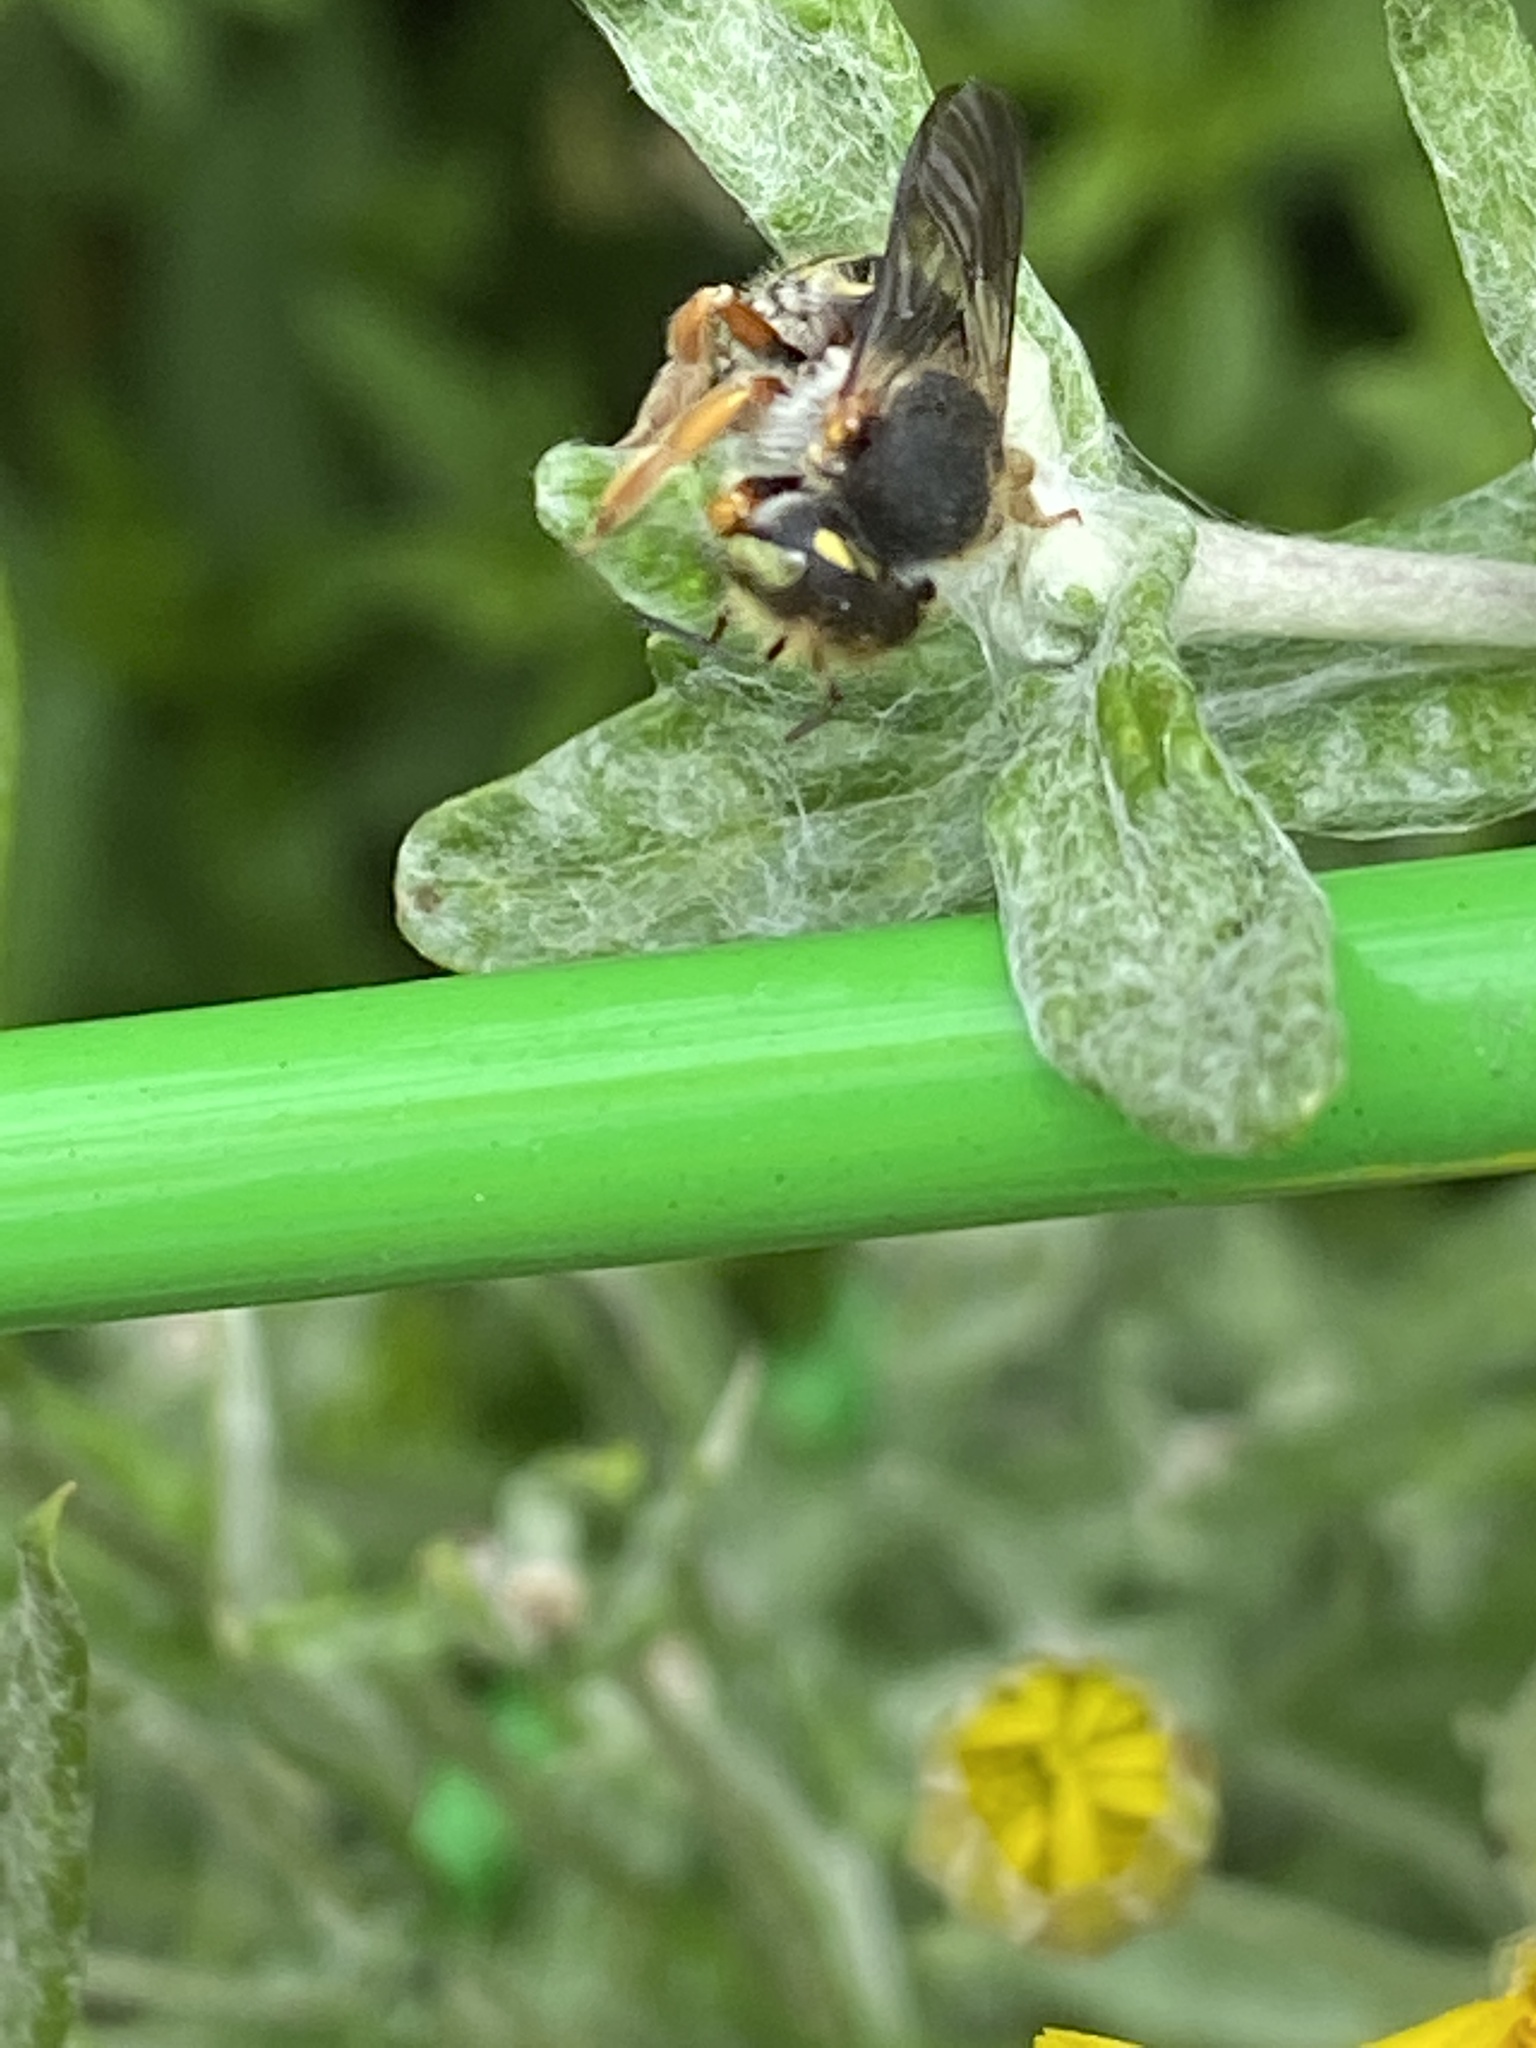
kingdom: Animalia
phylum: Arthropoda
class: Insecta
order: Hymenoptera
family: Megachilidae
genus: Anthidium
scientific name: Anthidium oblongatum
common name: Oblong wool carder bee
